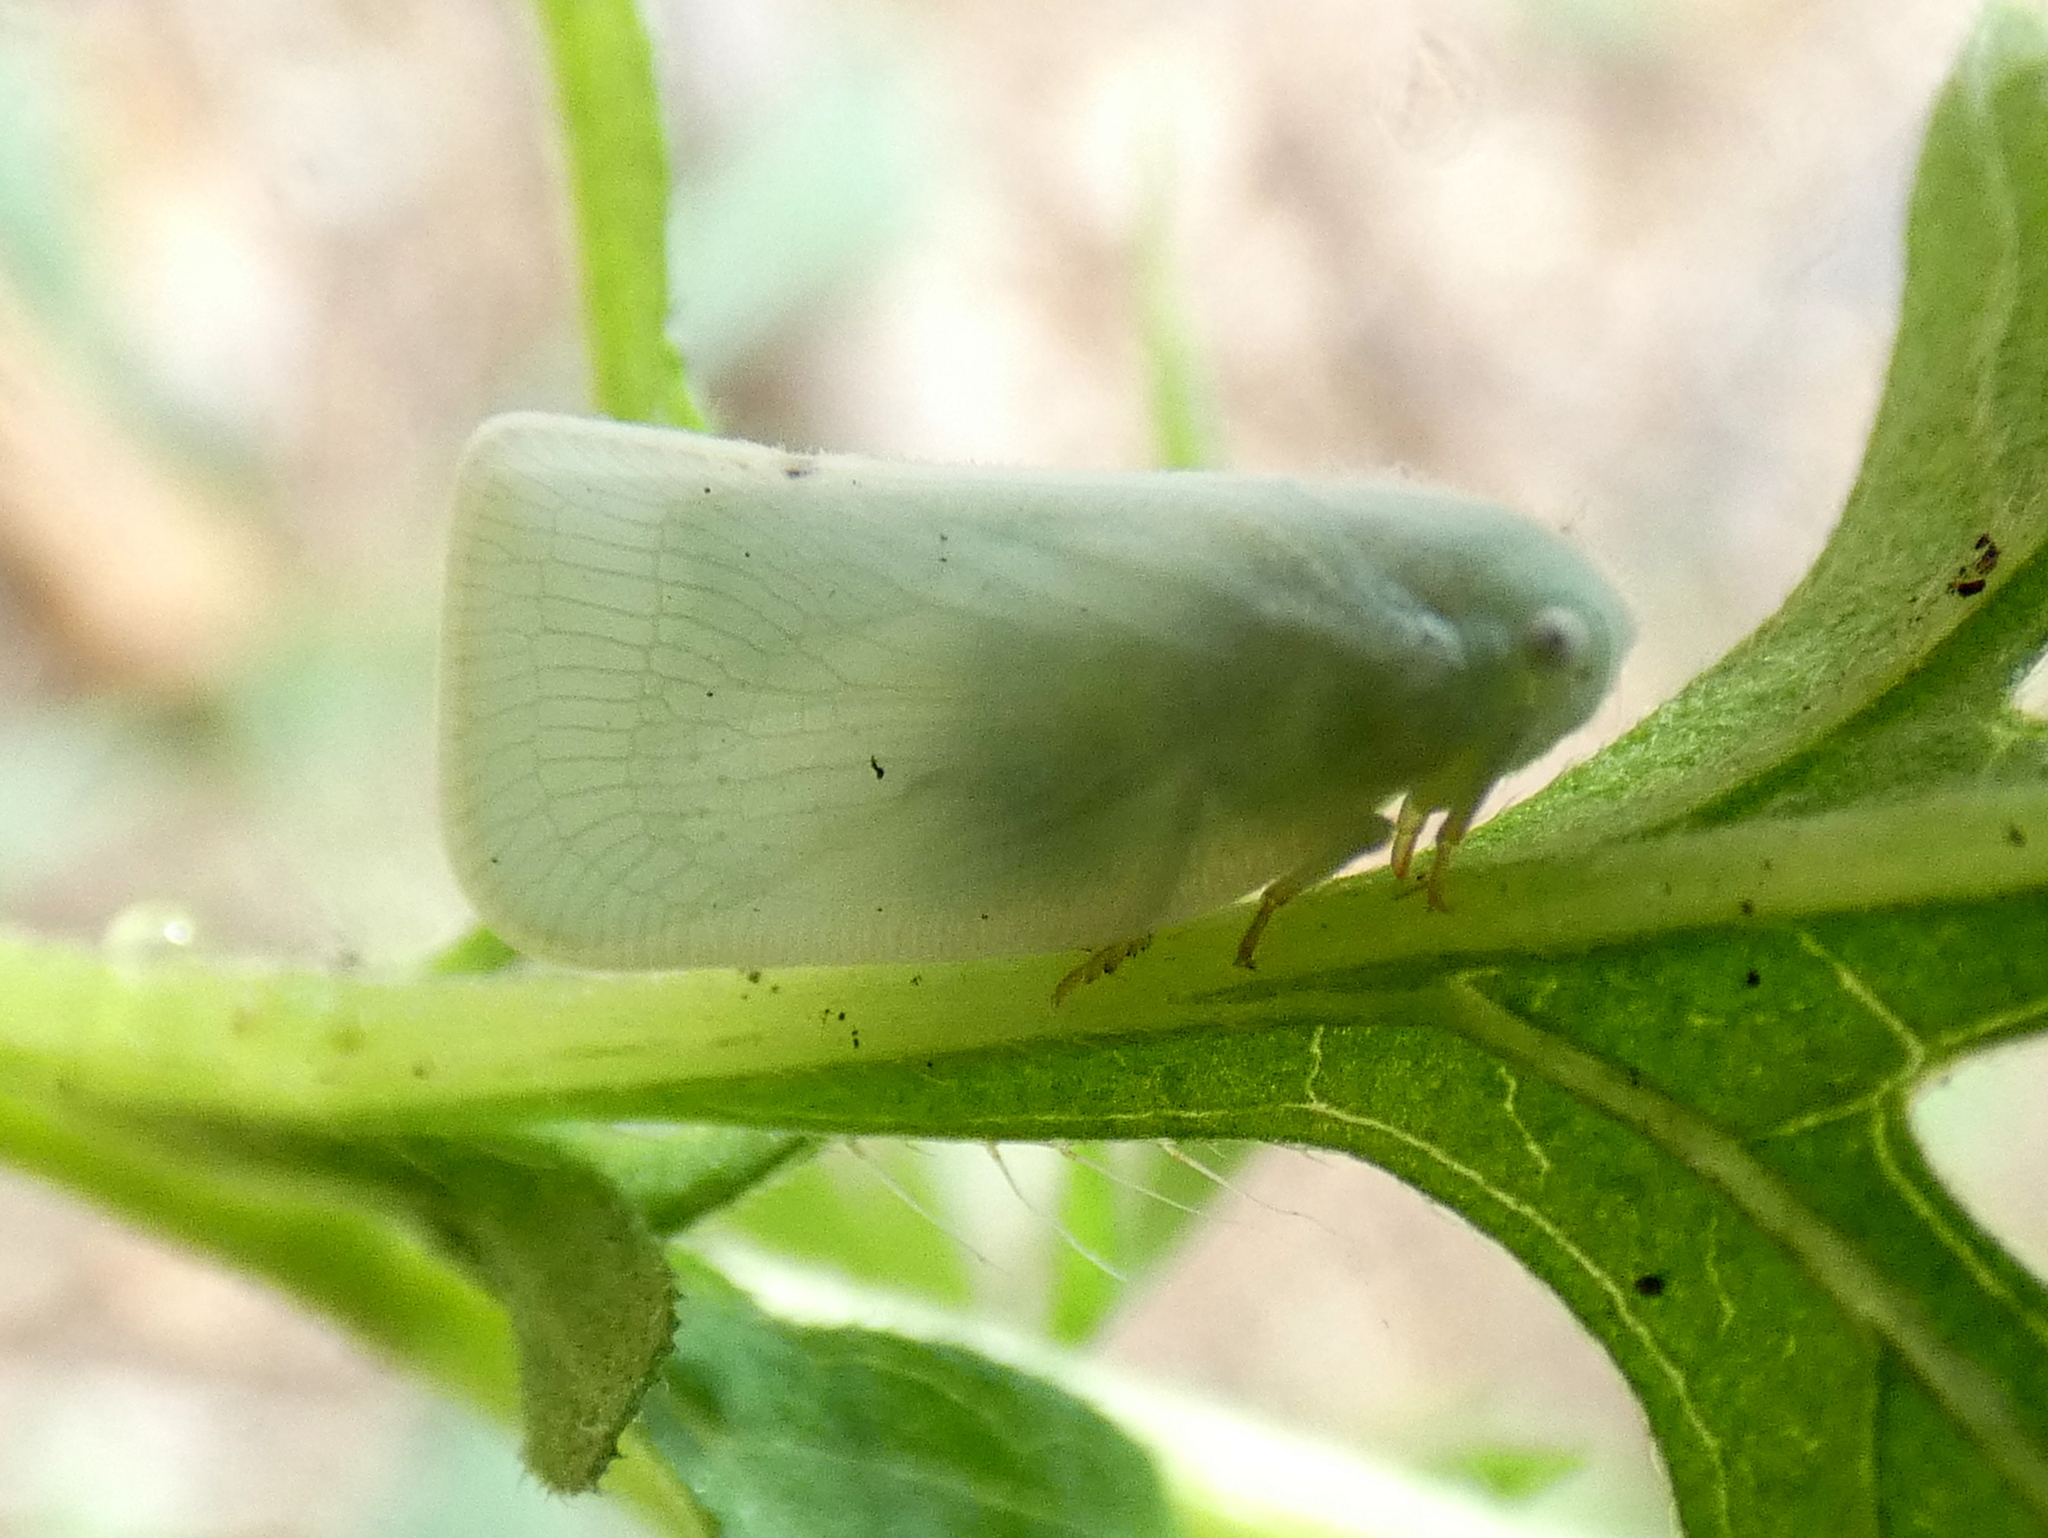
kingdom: Animalia
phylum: Arthropoda
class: Insecta
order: Hemiptera
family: Flatidae
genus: Flatormenis
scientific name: Flatormenis proxima
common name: Northern flatid planthopper
